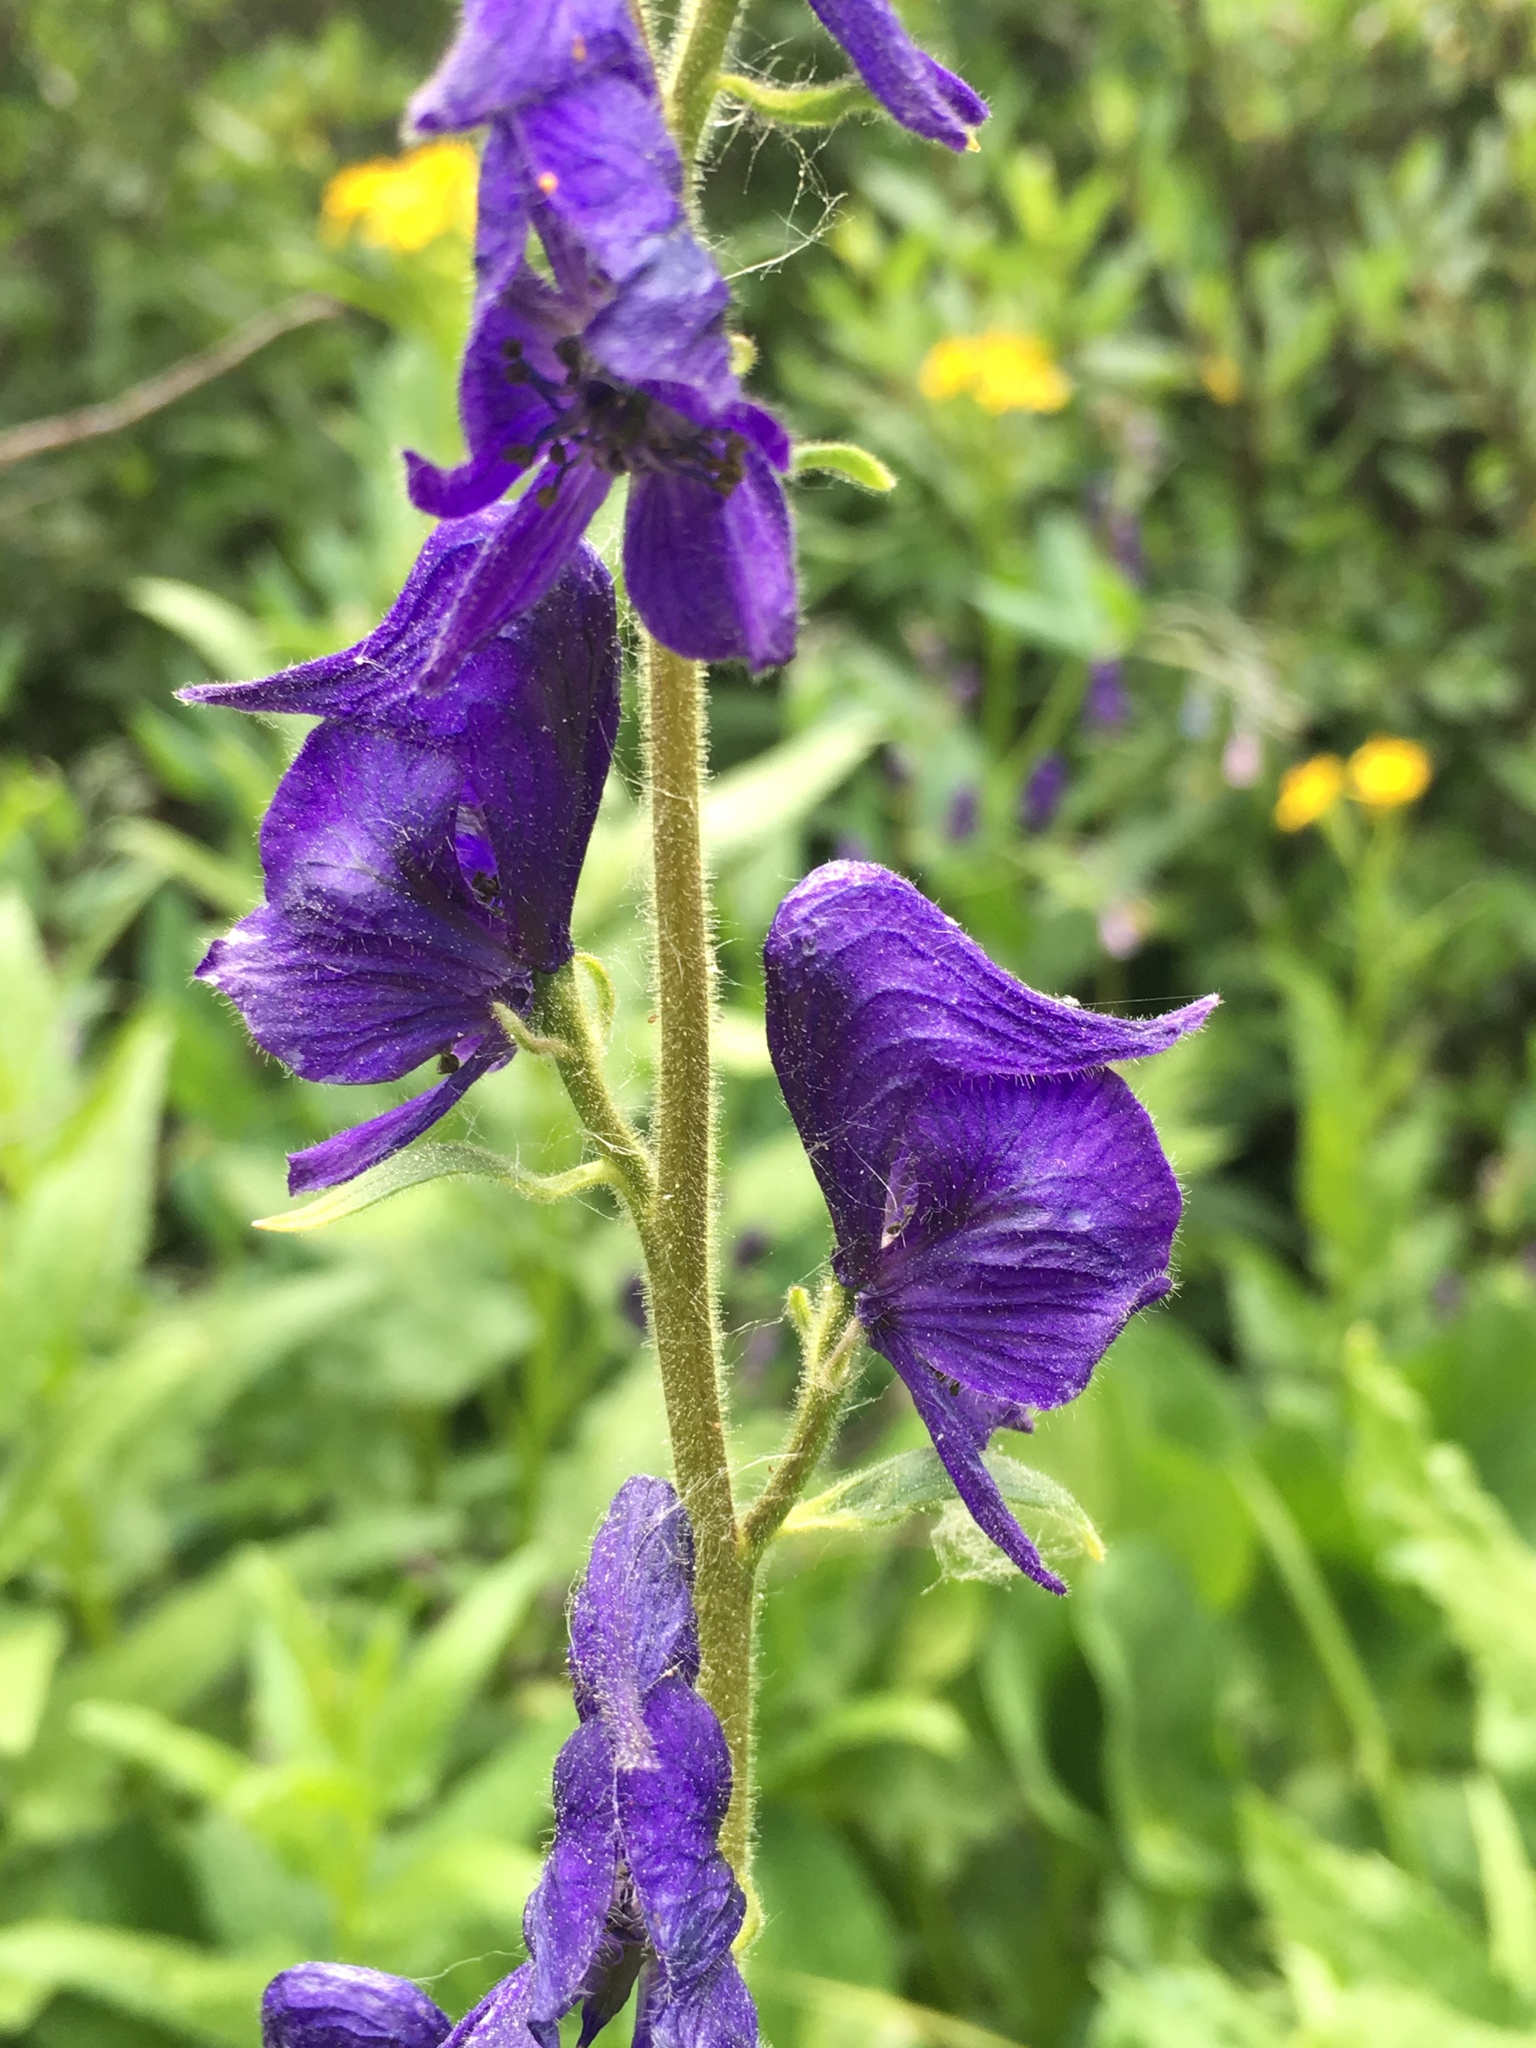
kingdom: Plantae
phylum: Tracheophyta
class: Magnoliopsida
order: Ranunculales
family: Ranunculaceae
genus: Aconitum
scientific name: Aconitum columbianum
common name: Columbia aconite
